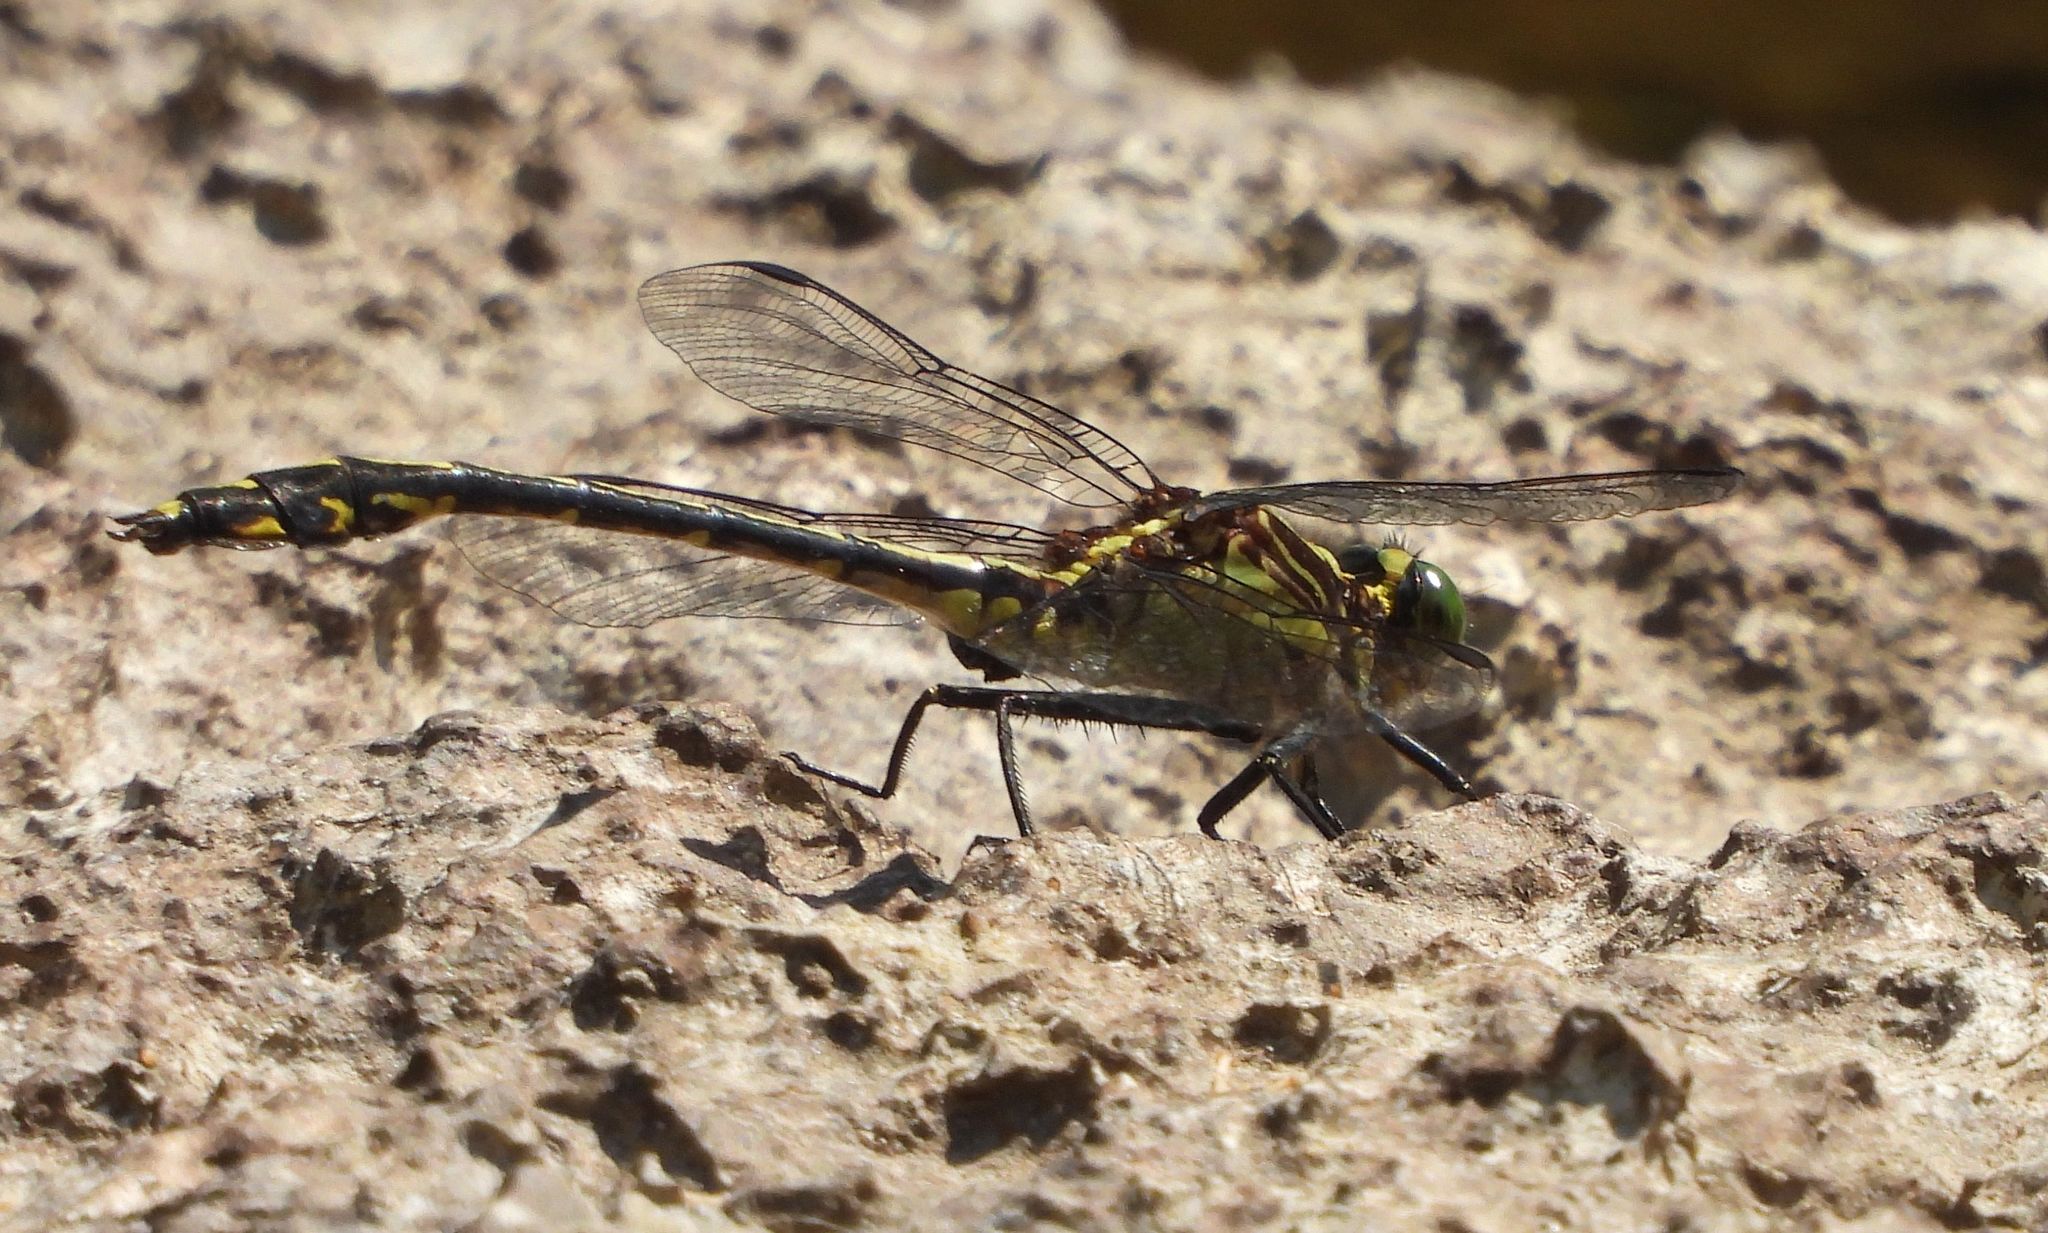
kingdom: Animalia
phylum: Arthropoda
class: Insecta
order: Odonata
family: Gomphidae
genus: Dromogomphus
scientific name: Dromogomphus spinosus
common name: Black-shouldered spinyleg
